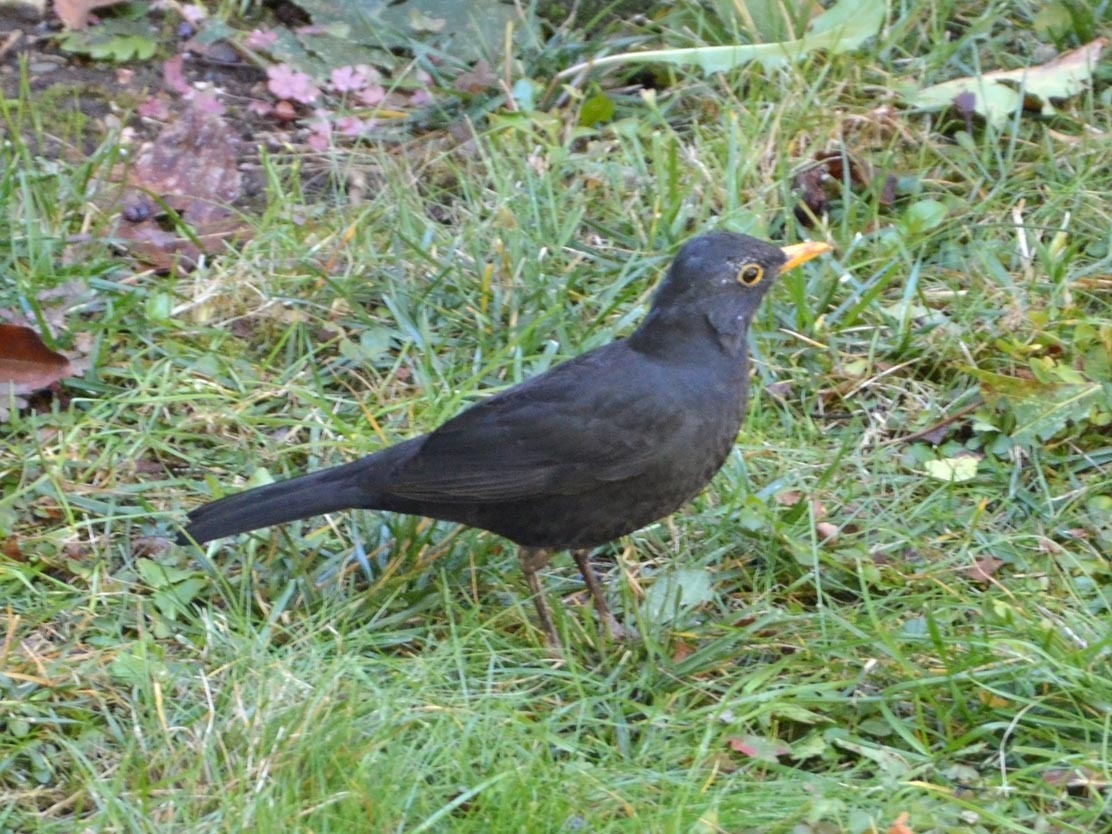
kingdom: Animalia
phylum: Chordata
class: Aves
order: Passeriformes
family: Turdidae
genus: Turdus
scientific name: Turdus merula
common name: Common blackbird
